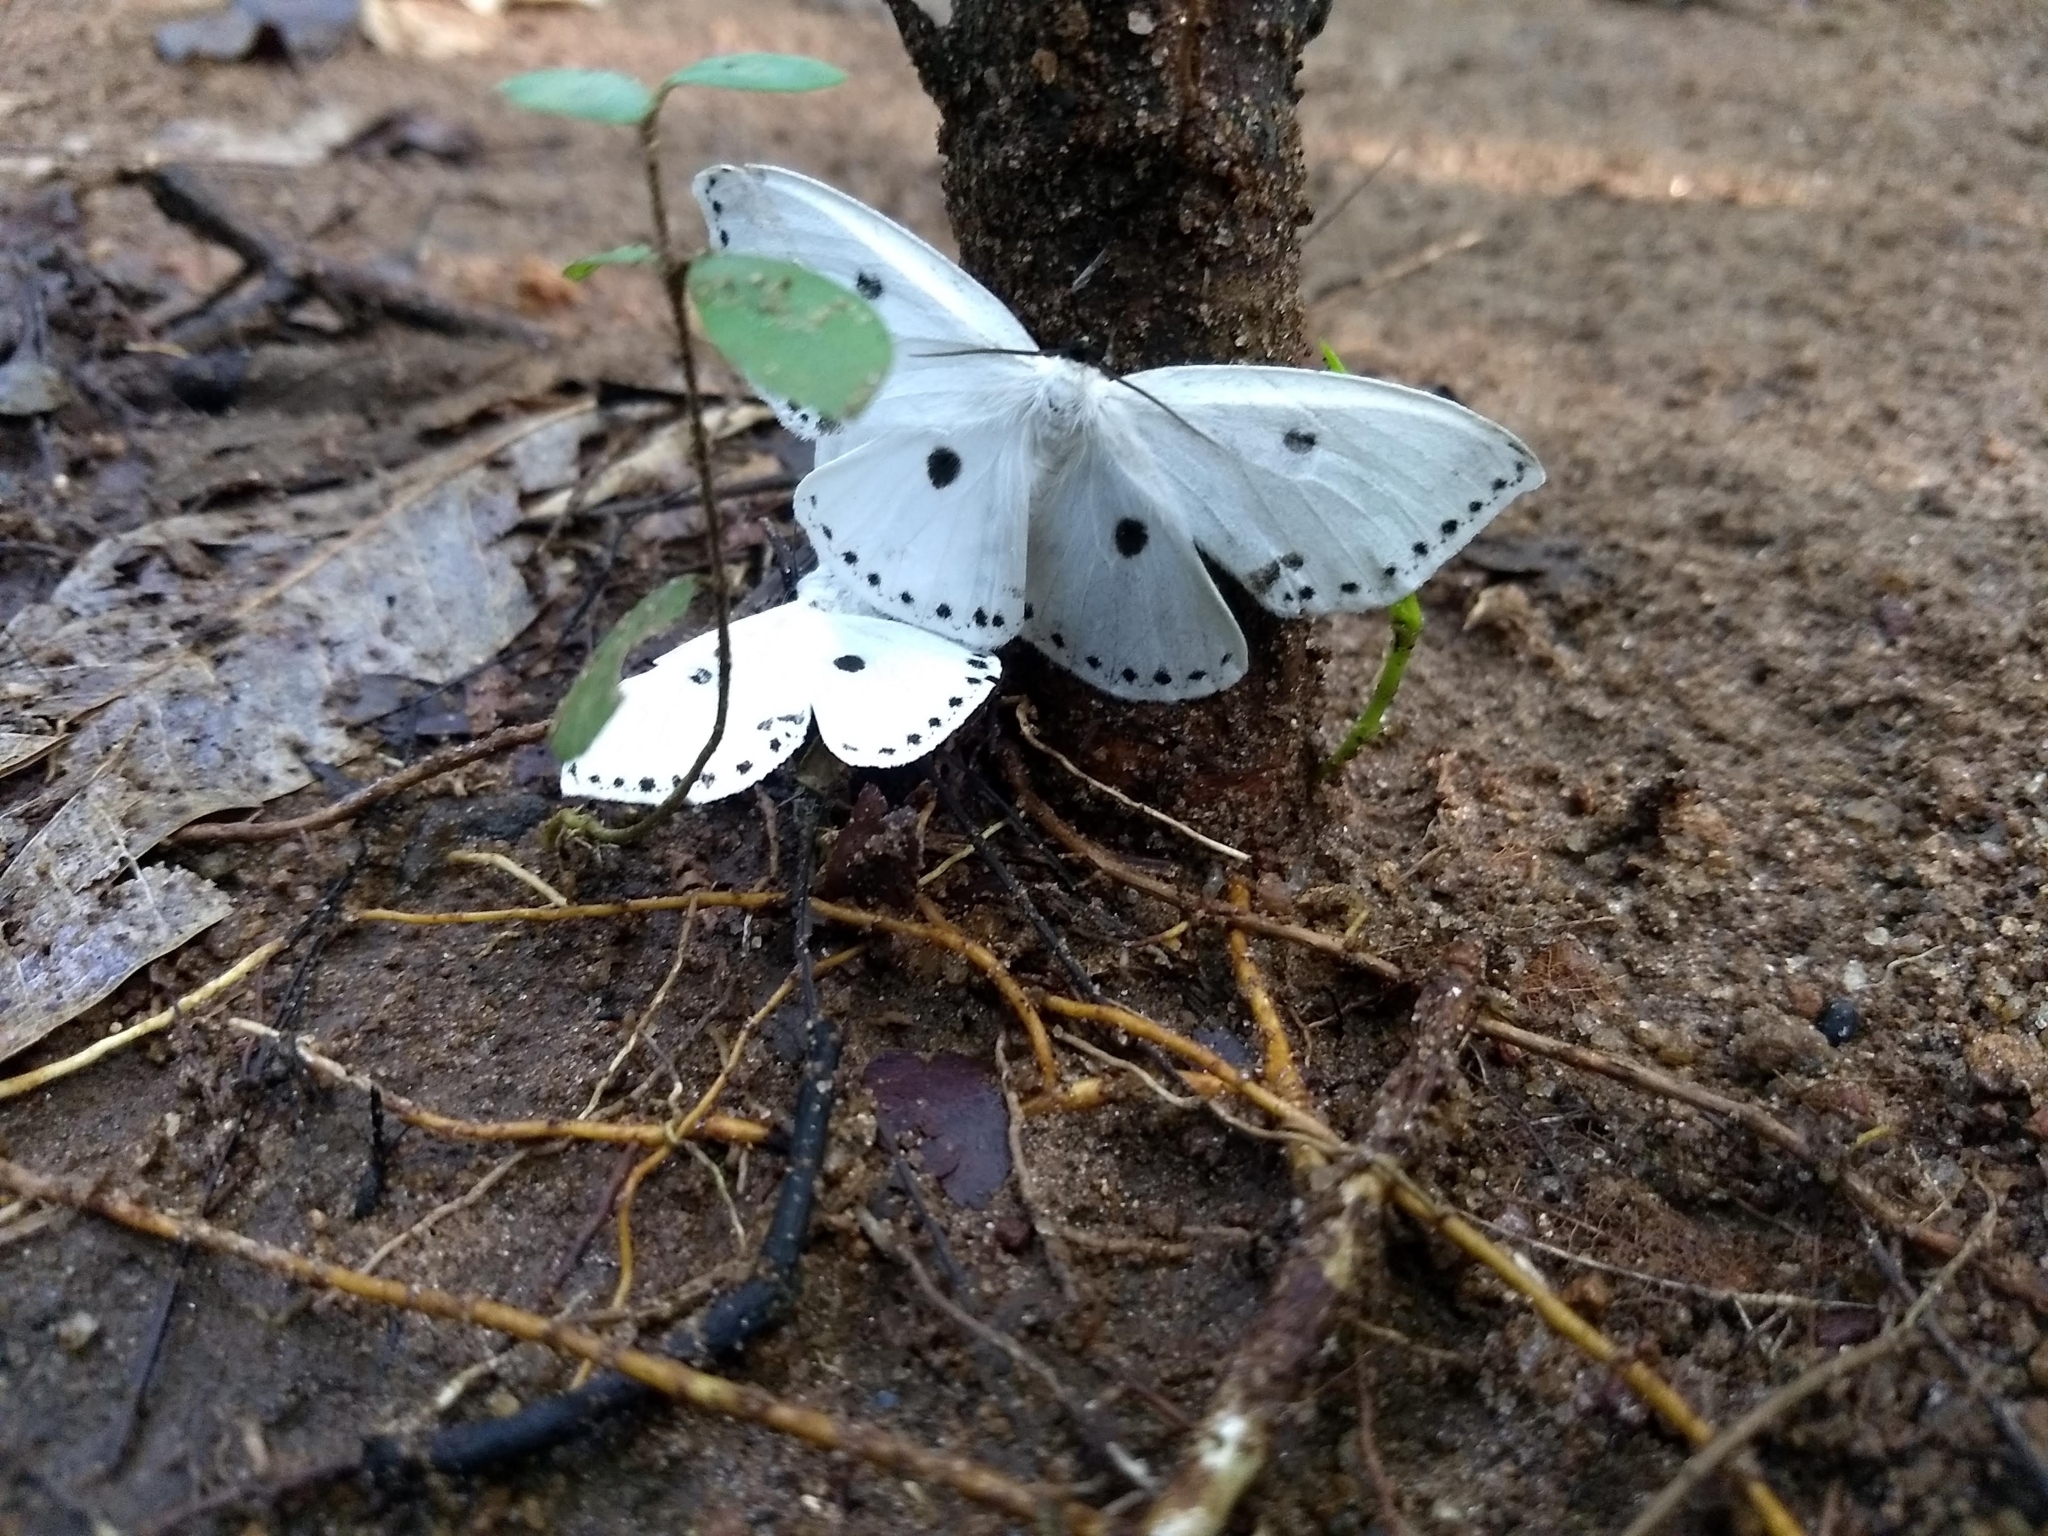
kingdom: Animalia
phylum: Arthropoda
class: Insecta
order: Lepidoptera
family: Drepanidae
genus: Cyclidia
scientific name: Cyclidia dictyaria
